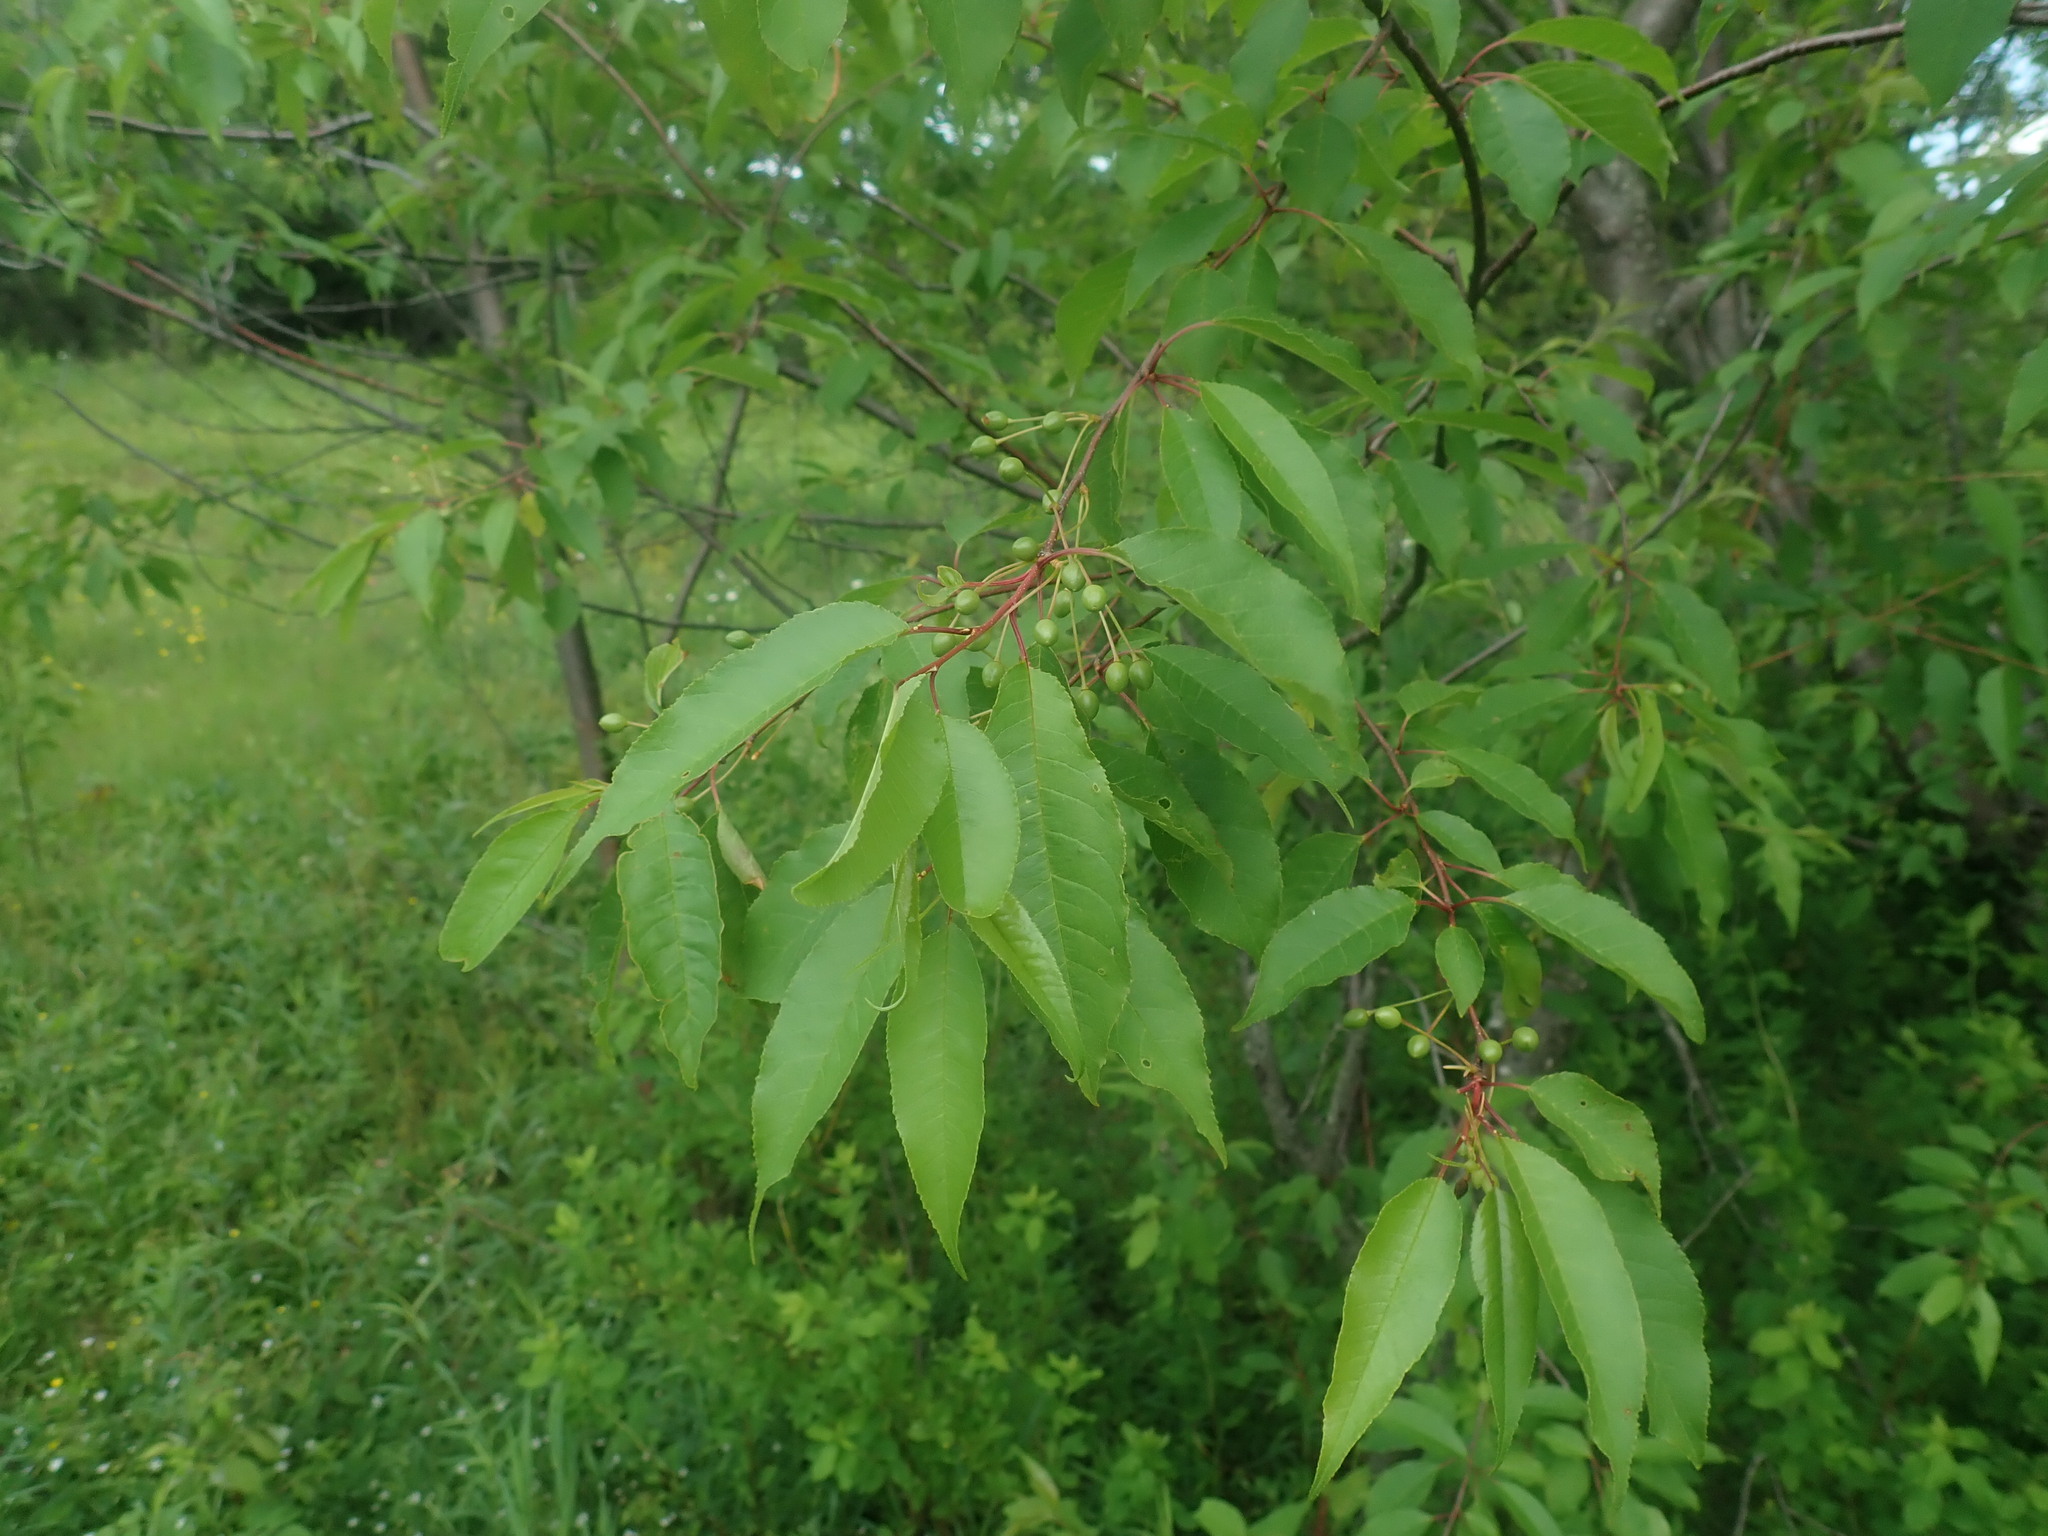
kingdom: Plantae
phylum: Tracheophyta
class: Magnoliopsida
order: Rosales
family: Rosaceae
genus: Prunus
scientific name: Prunus pensylvanica
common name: Pin cherry
